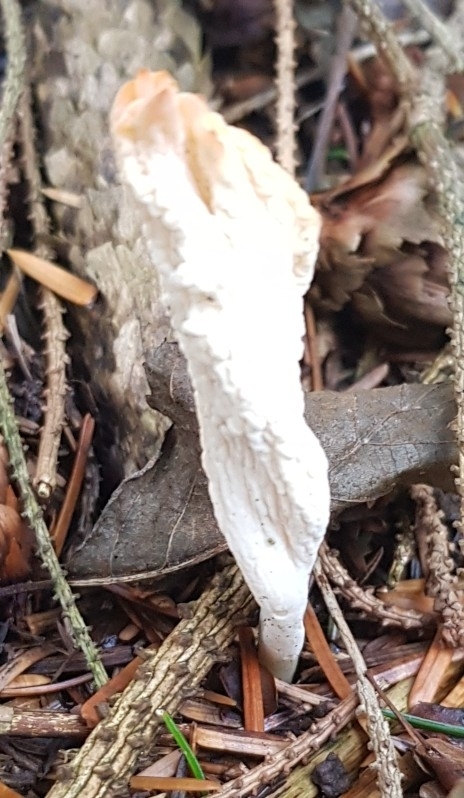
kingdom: Fungi
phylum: Basidiomycota
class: Agaricomycetes
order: Cantharellales
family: Hydnaceae
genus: Clavulina
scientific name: Clavulina rugosa
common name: Wrinkled club
